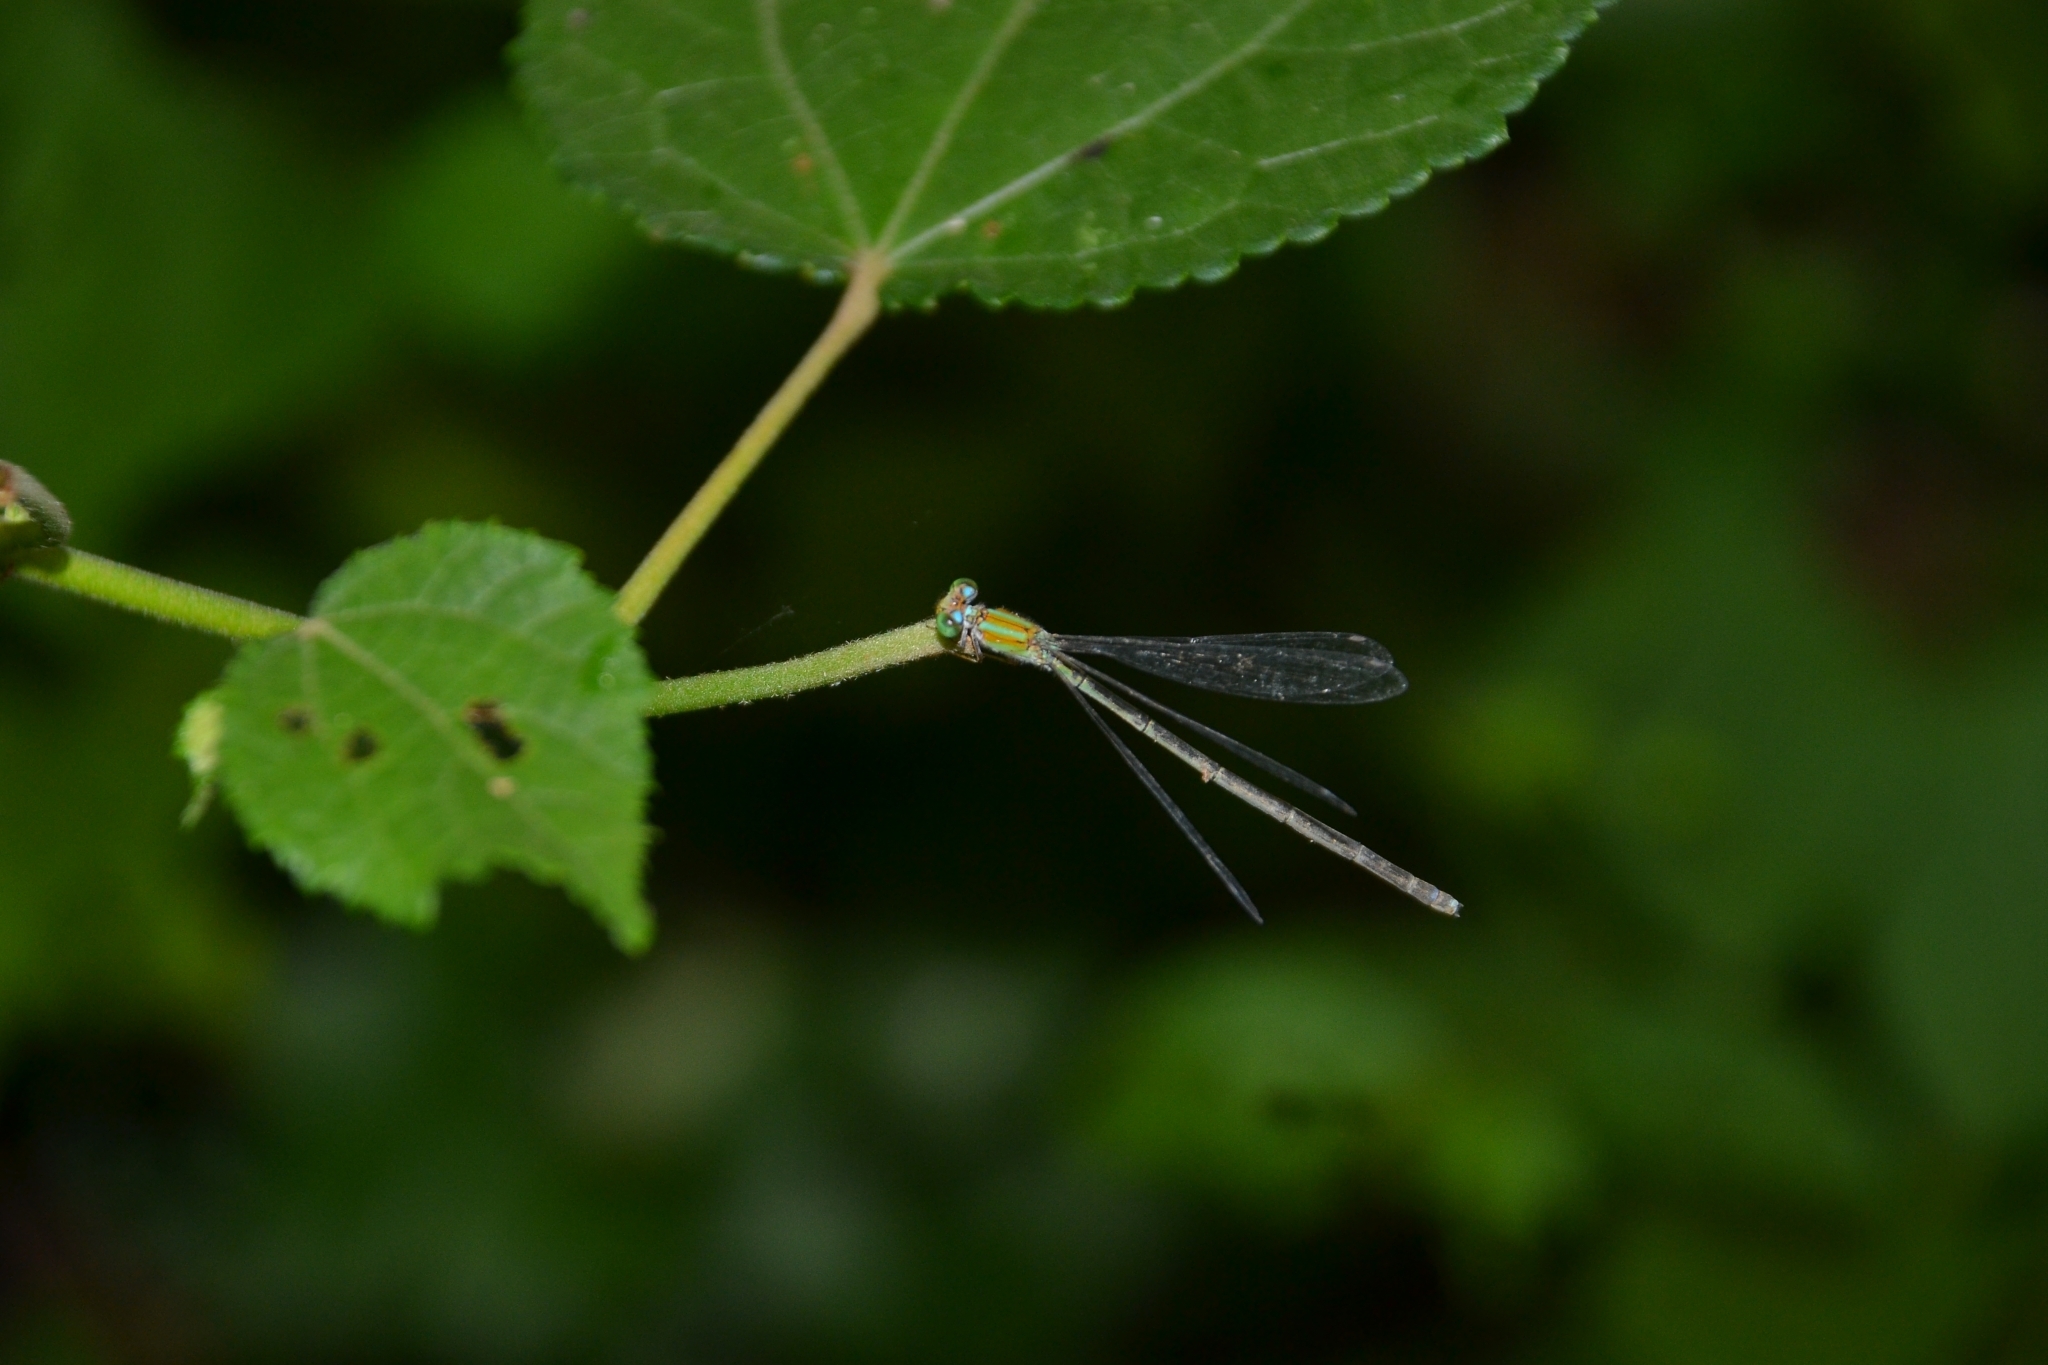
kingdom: Animalia
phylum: Arthropoda
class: Insecta
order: Odonata
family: Coenagrionidae
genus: Pseudagrion
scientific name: Pseudagrion microcephalum
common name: Blue riverdamsel
